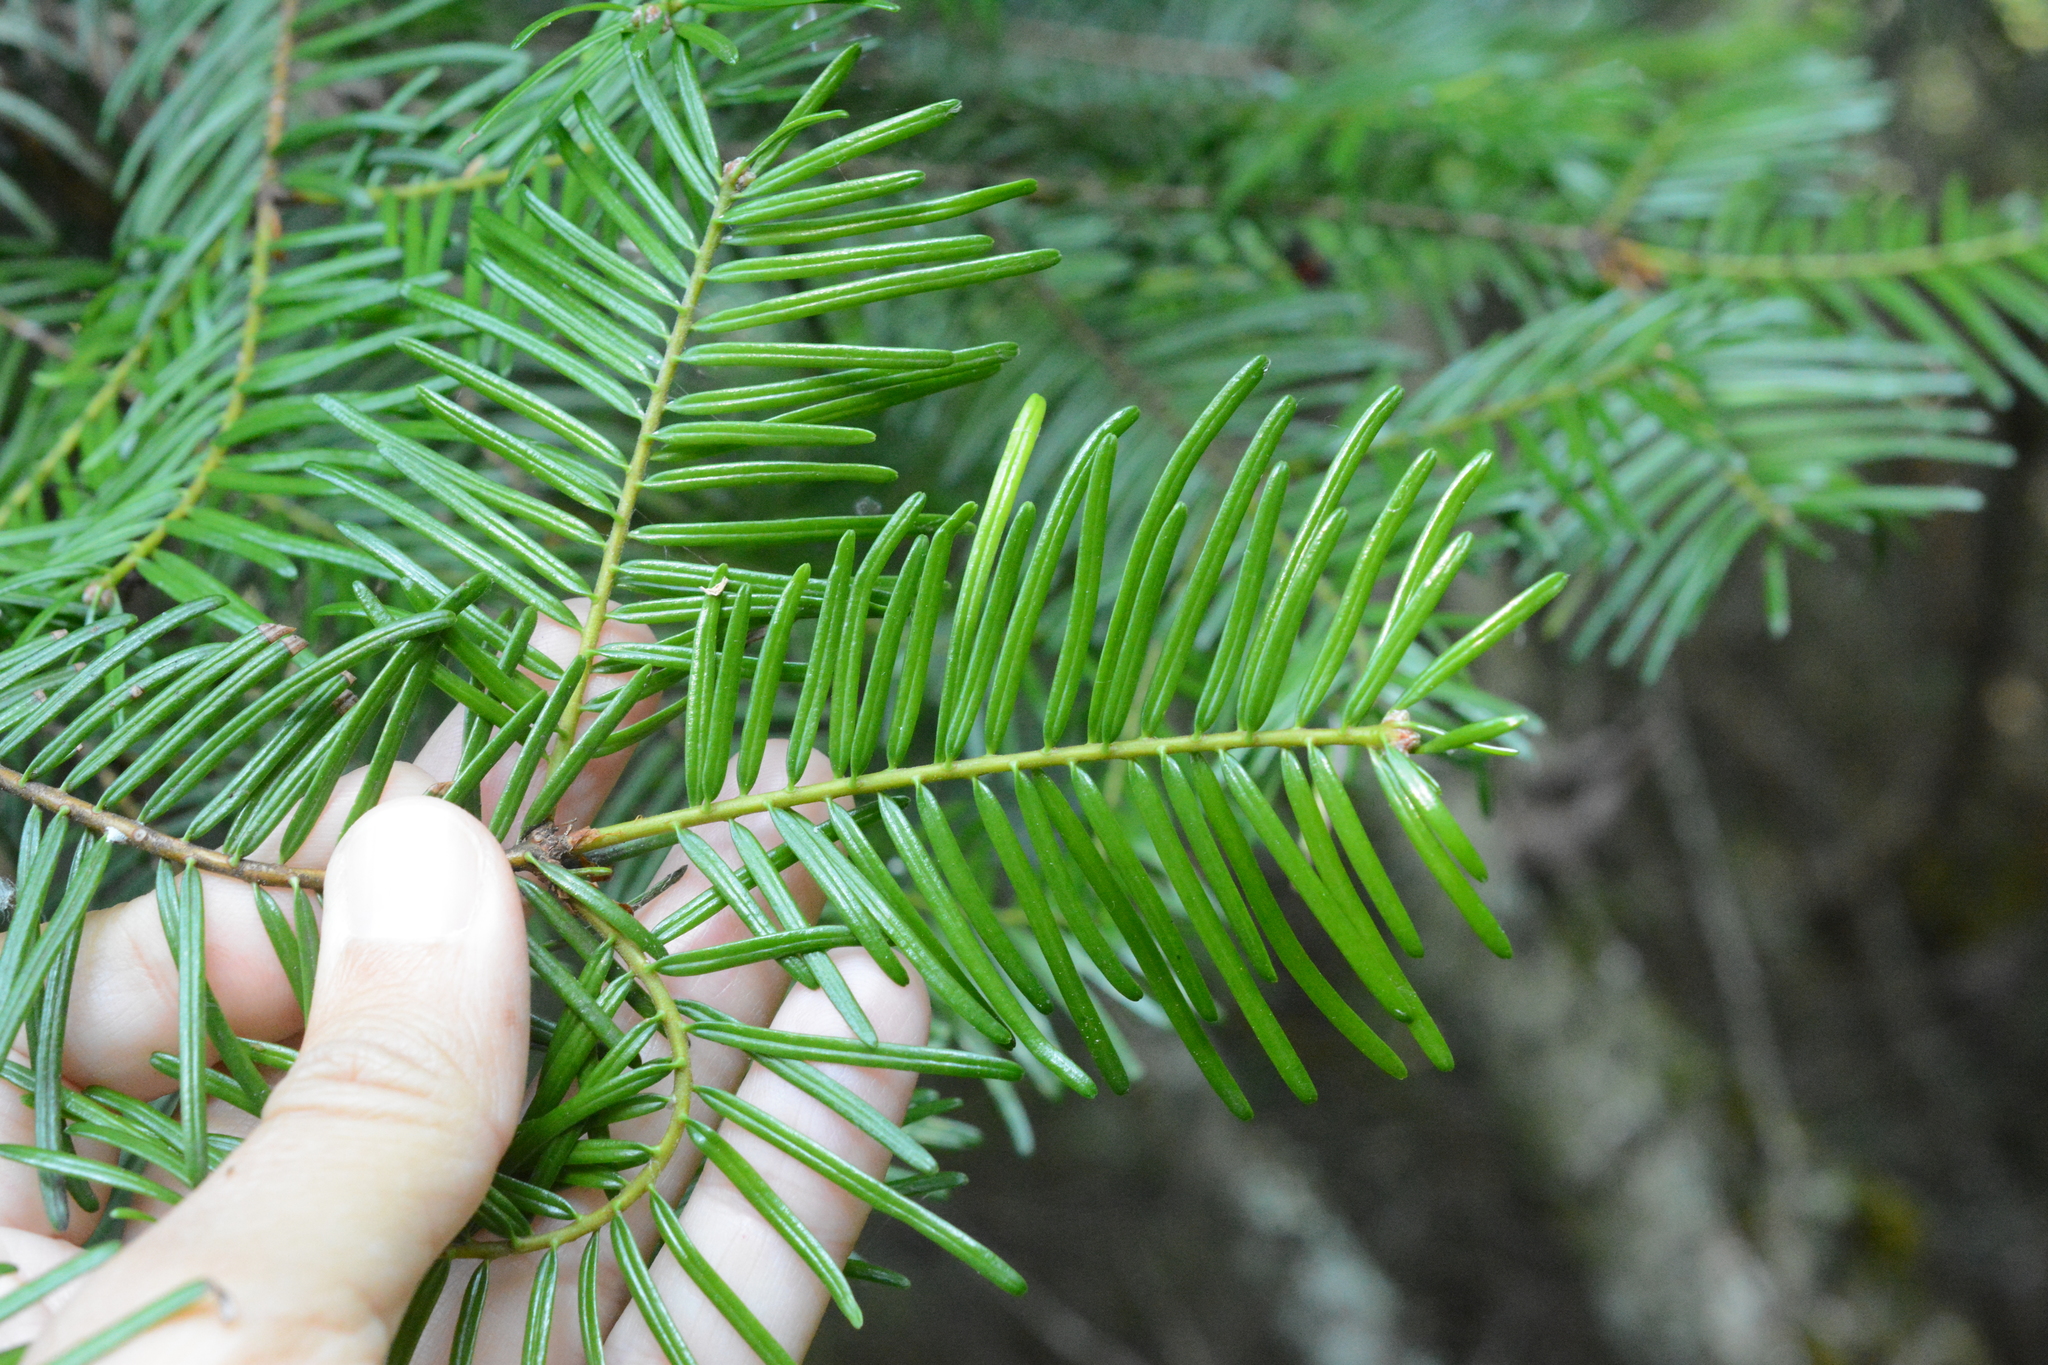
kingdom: Plantae
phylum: Tracheophyta
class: Pinopsida
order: Pinales
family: Pinaceae
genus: Abies
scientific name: Abies grandis
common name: Giant fir
